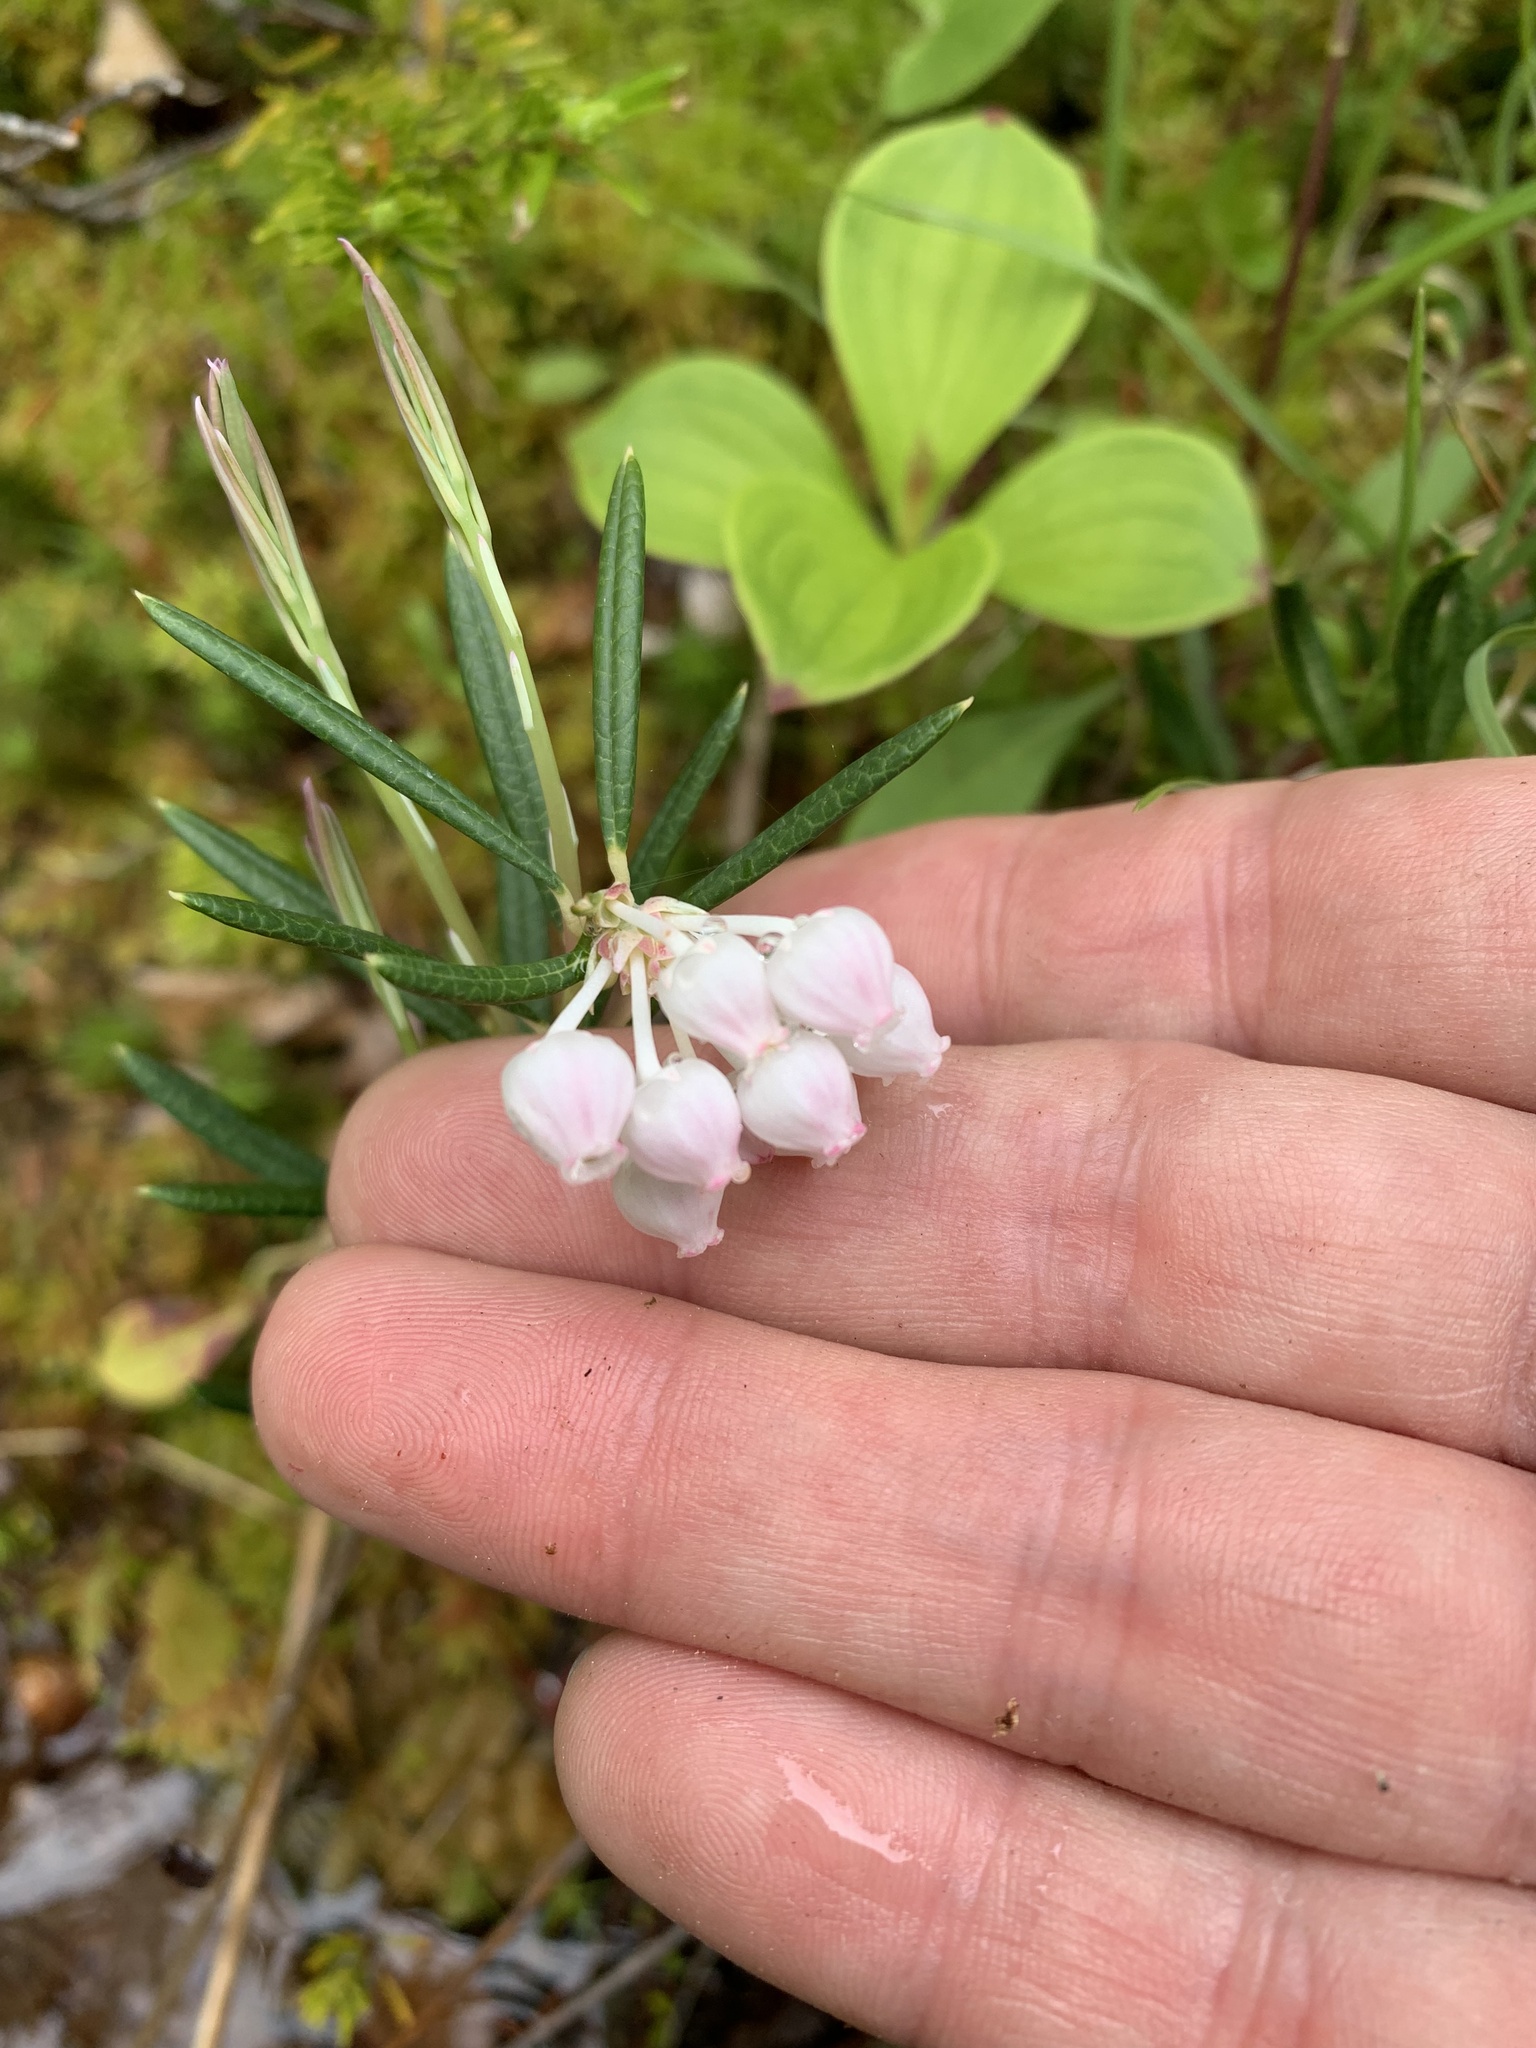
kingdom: Plantae
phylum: Tracheophyta
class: Magnoliopsida
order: Ericales
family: Ericaceae
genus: Andromeda
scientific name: Andromeda polifolia
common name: Bog-rosemary
